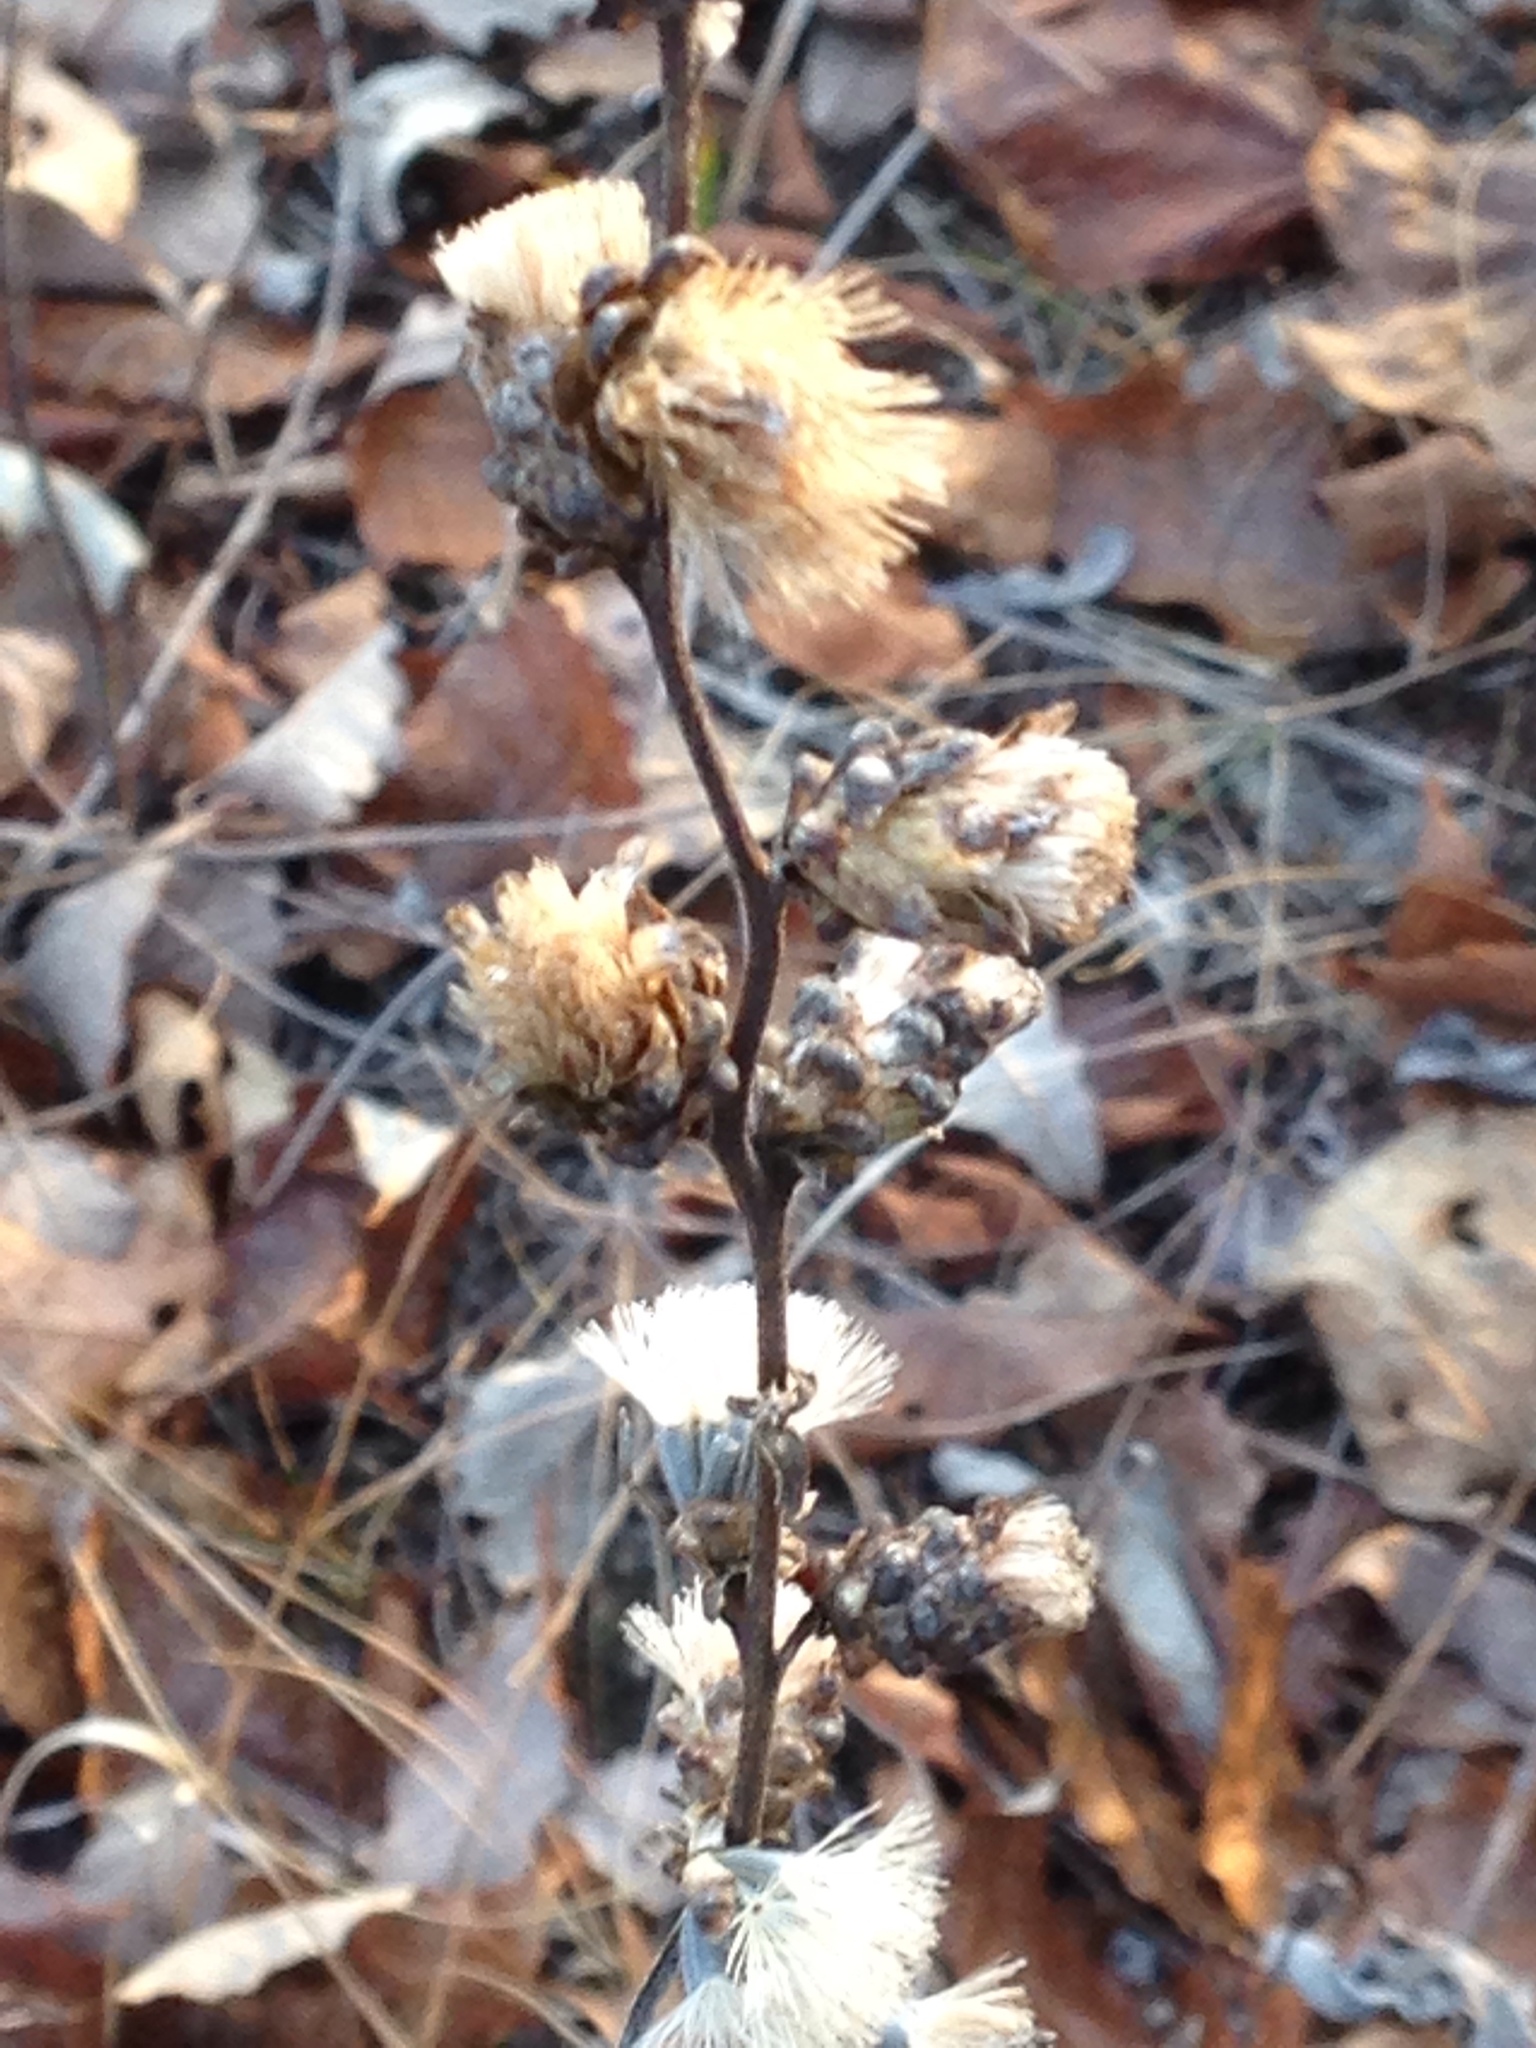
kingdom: Plantae
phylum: Tracheophyta
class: Magnoliopsida
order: Asterales
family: Asteraceae
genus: Liatris
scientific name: Liatris aspera
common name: Lacerate blazing-star
